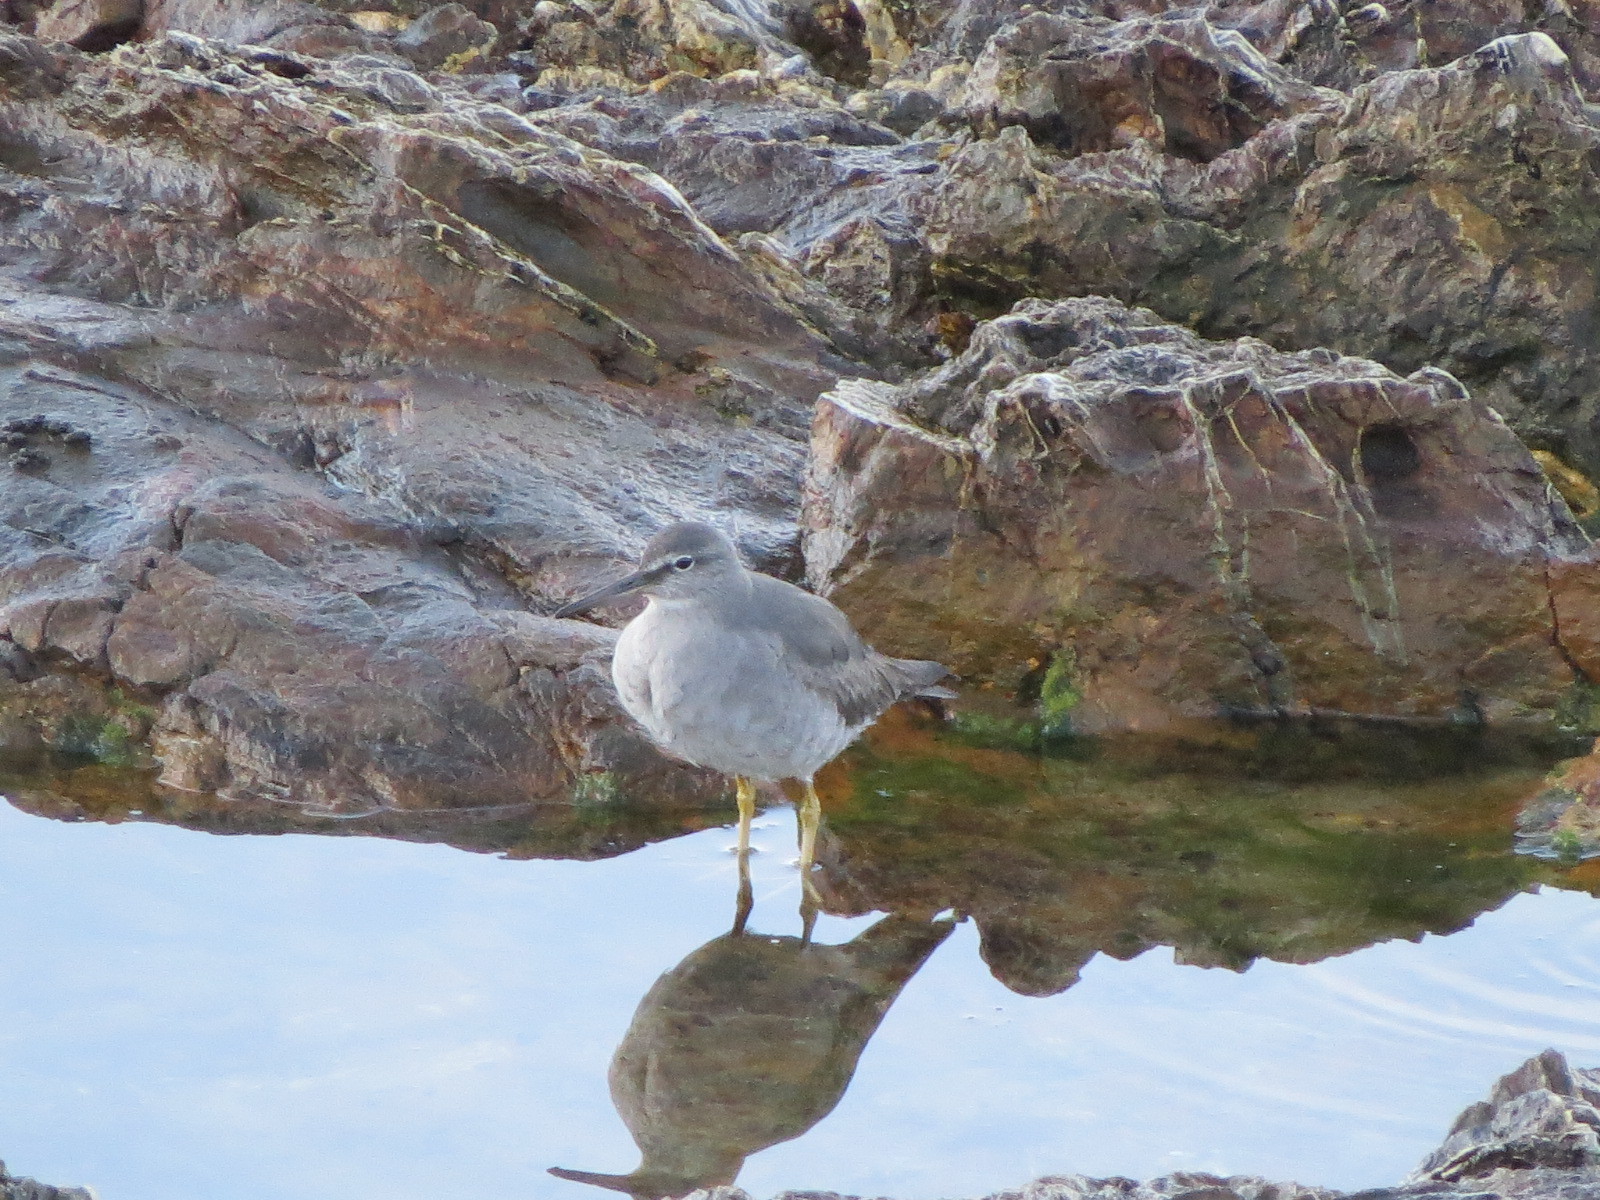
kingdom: Animalia
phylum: Chordata
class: Aves
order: Charadriiformes
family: Scolopacidae
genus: Tringa
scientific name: Tringa incana
